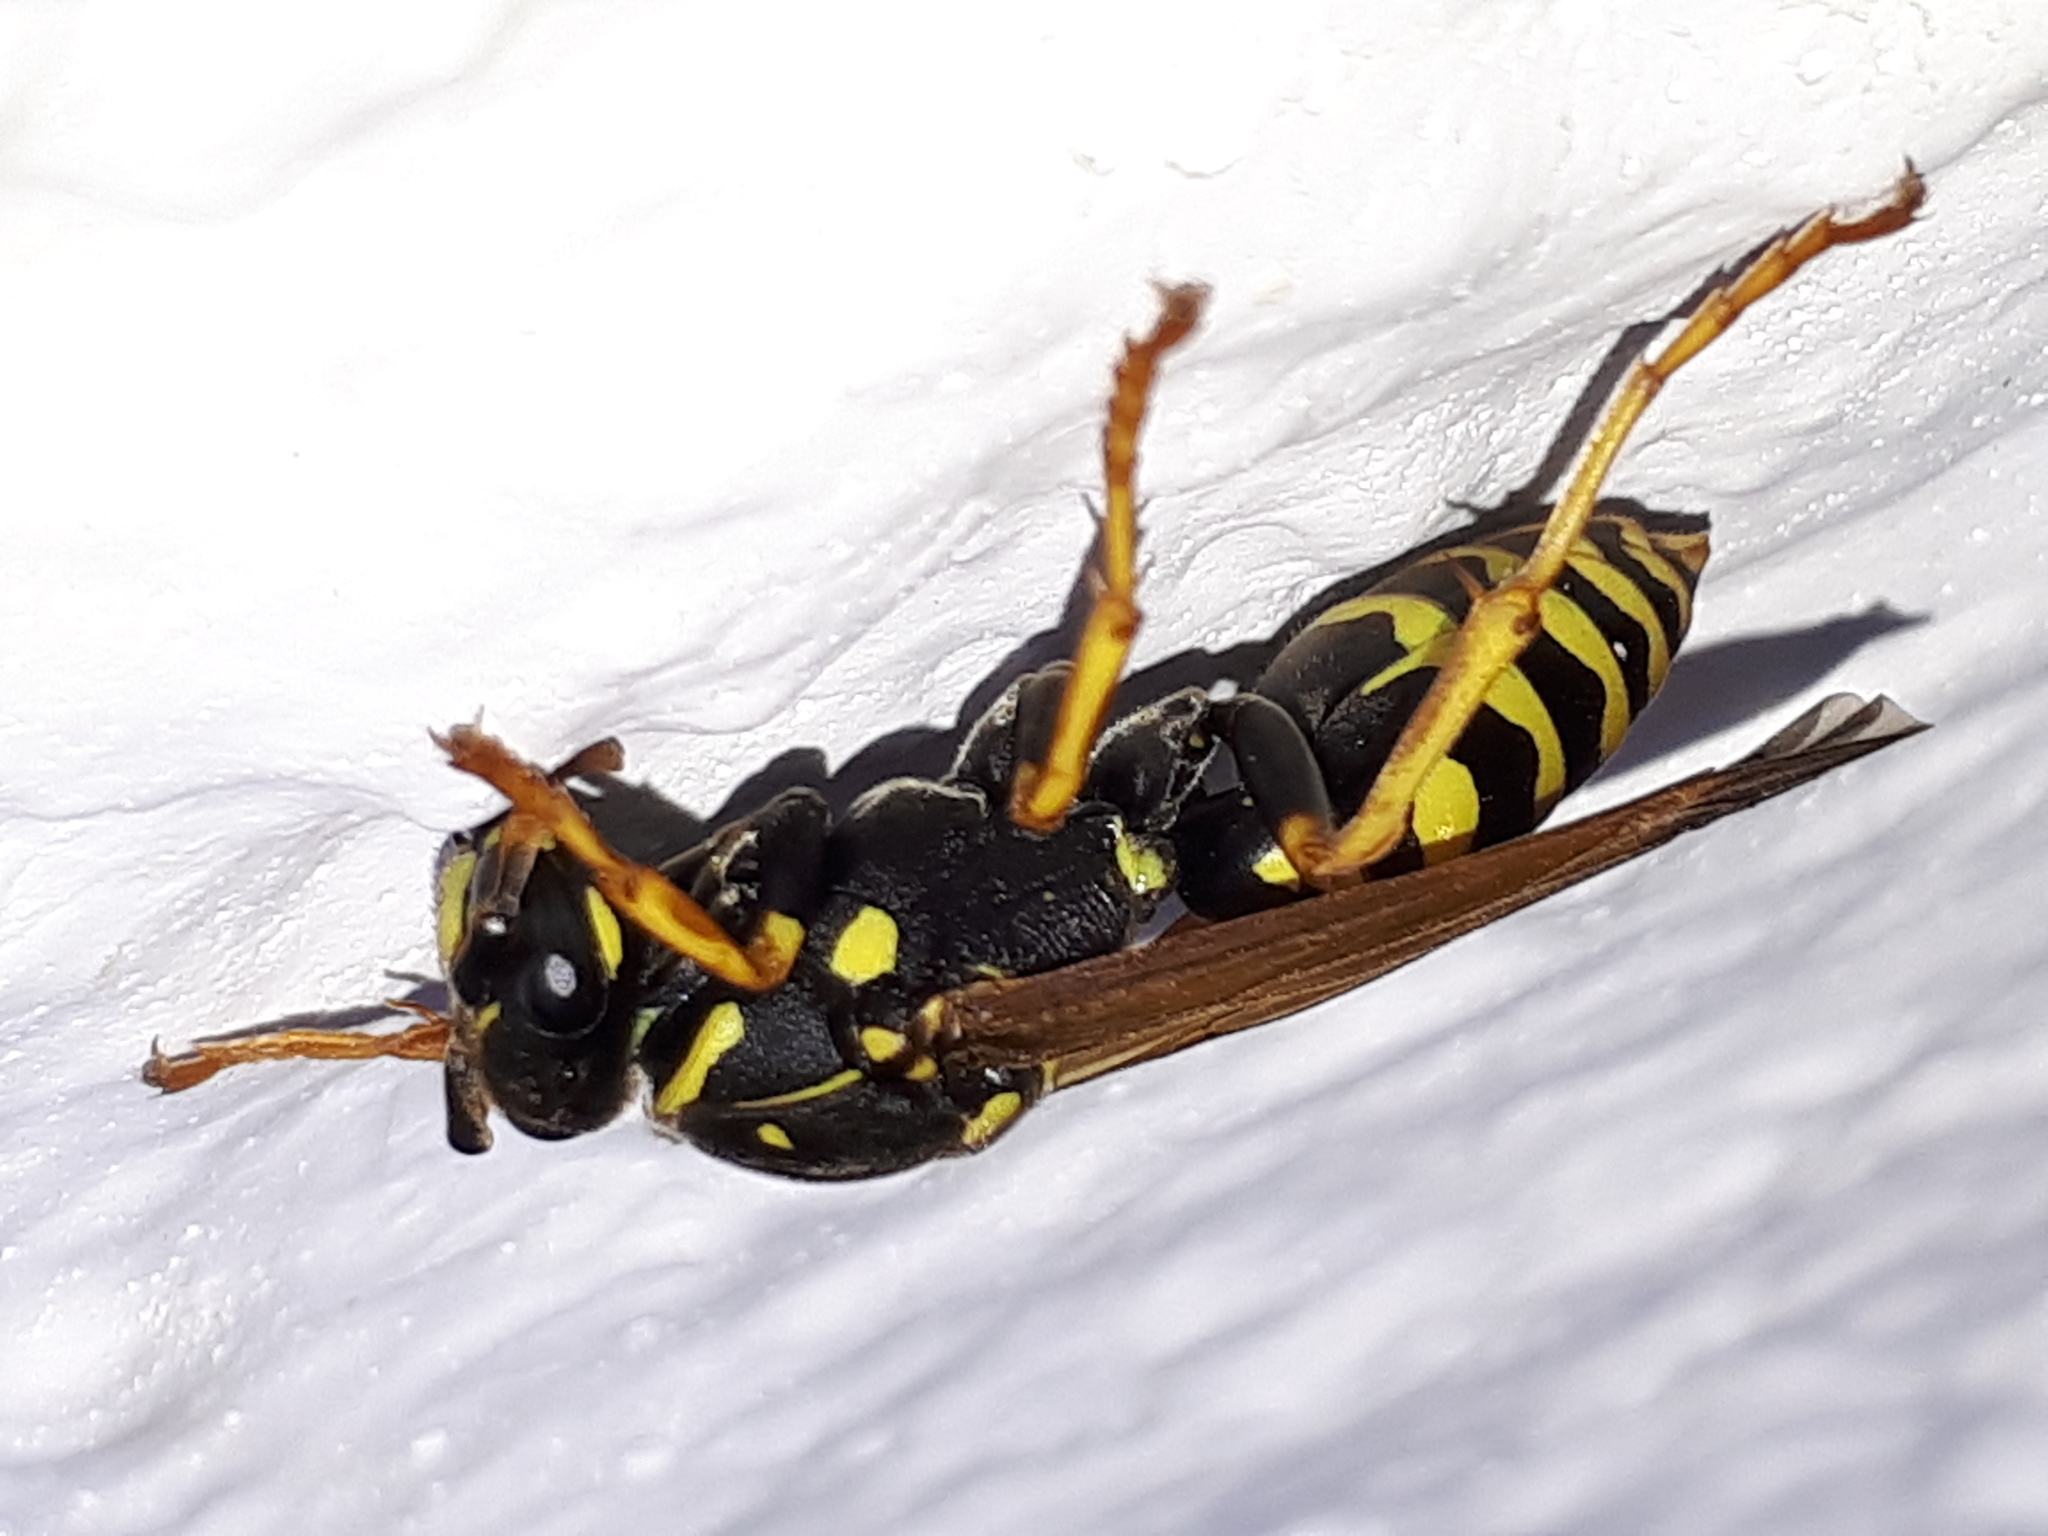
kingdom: Animalia
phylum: Arthropoda
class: Insecta
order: Hymenoptera
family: Eumenidae
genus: Polistes
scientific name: Polistes dominula
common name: Paper wasp
